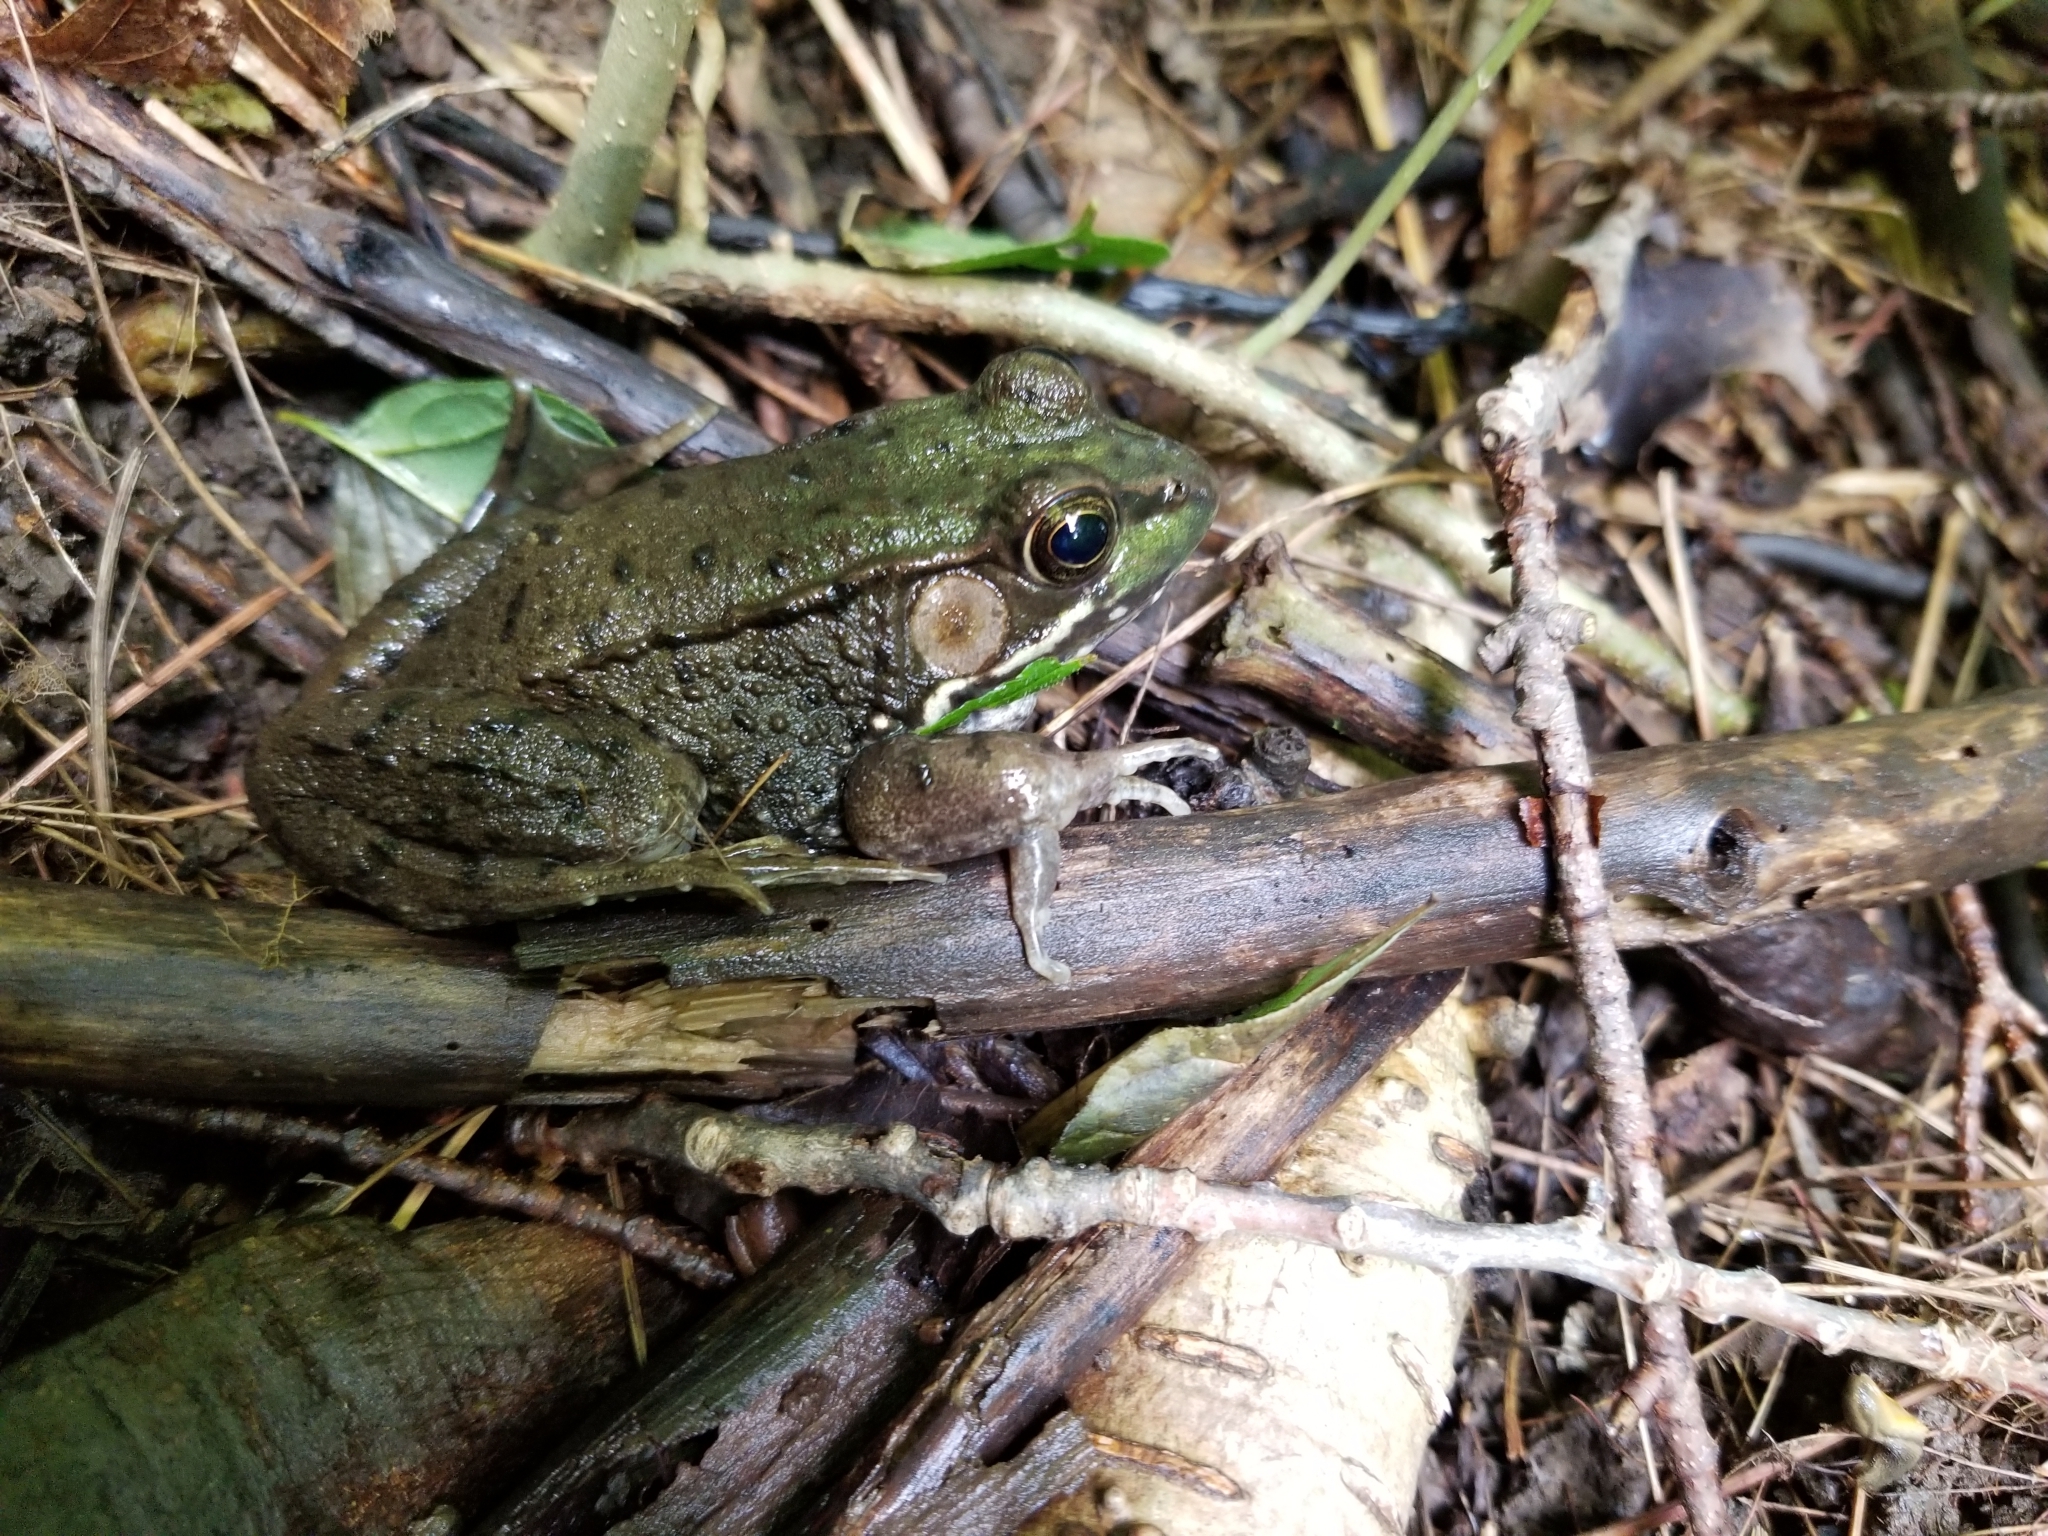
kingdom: Animalia
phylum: Chordata
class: Amphibia
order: Anura
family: Ranidae
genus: Lithobates
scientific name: Lithobates clamitans
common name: Green frog
